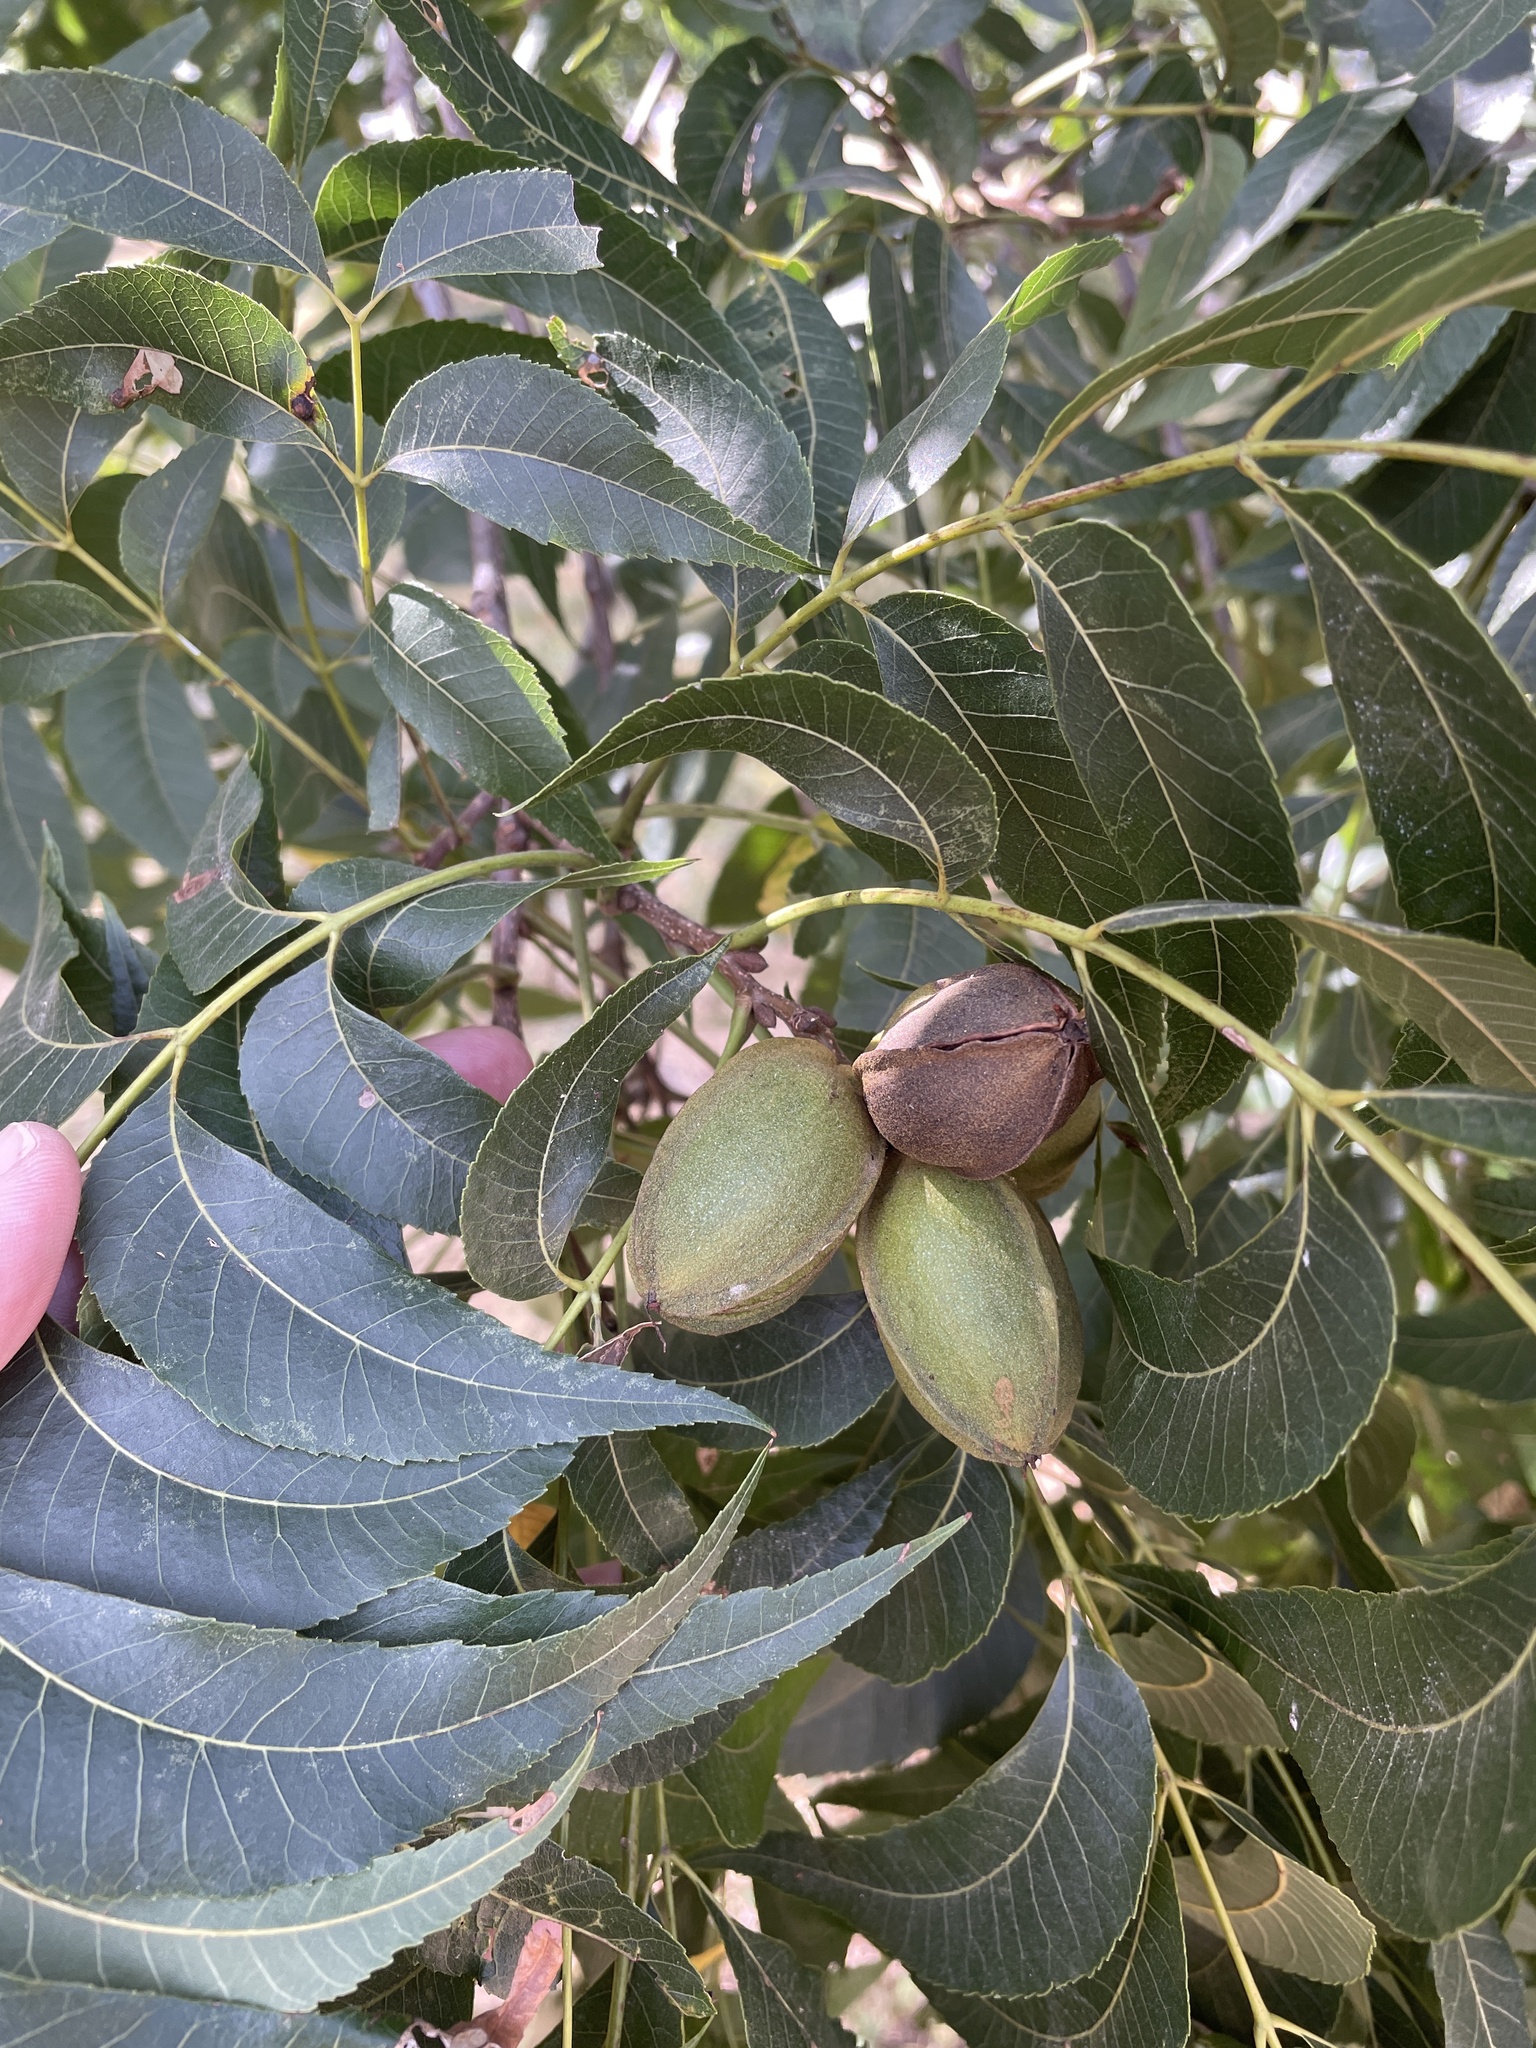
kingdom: Plantae
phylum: Tracheophyta
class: Magnoliopsida
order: Fagales
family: Juglandaceae
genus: Carya
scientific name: Carya illinoinensis
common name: Pecan
